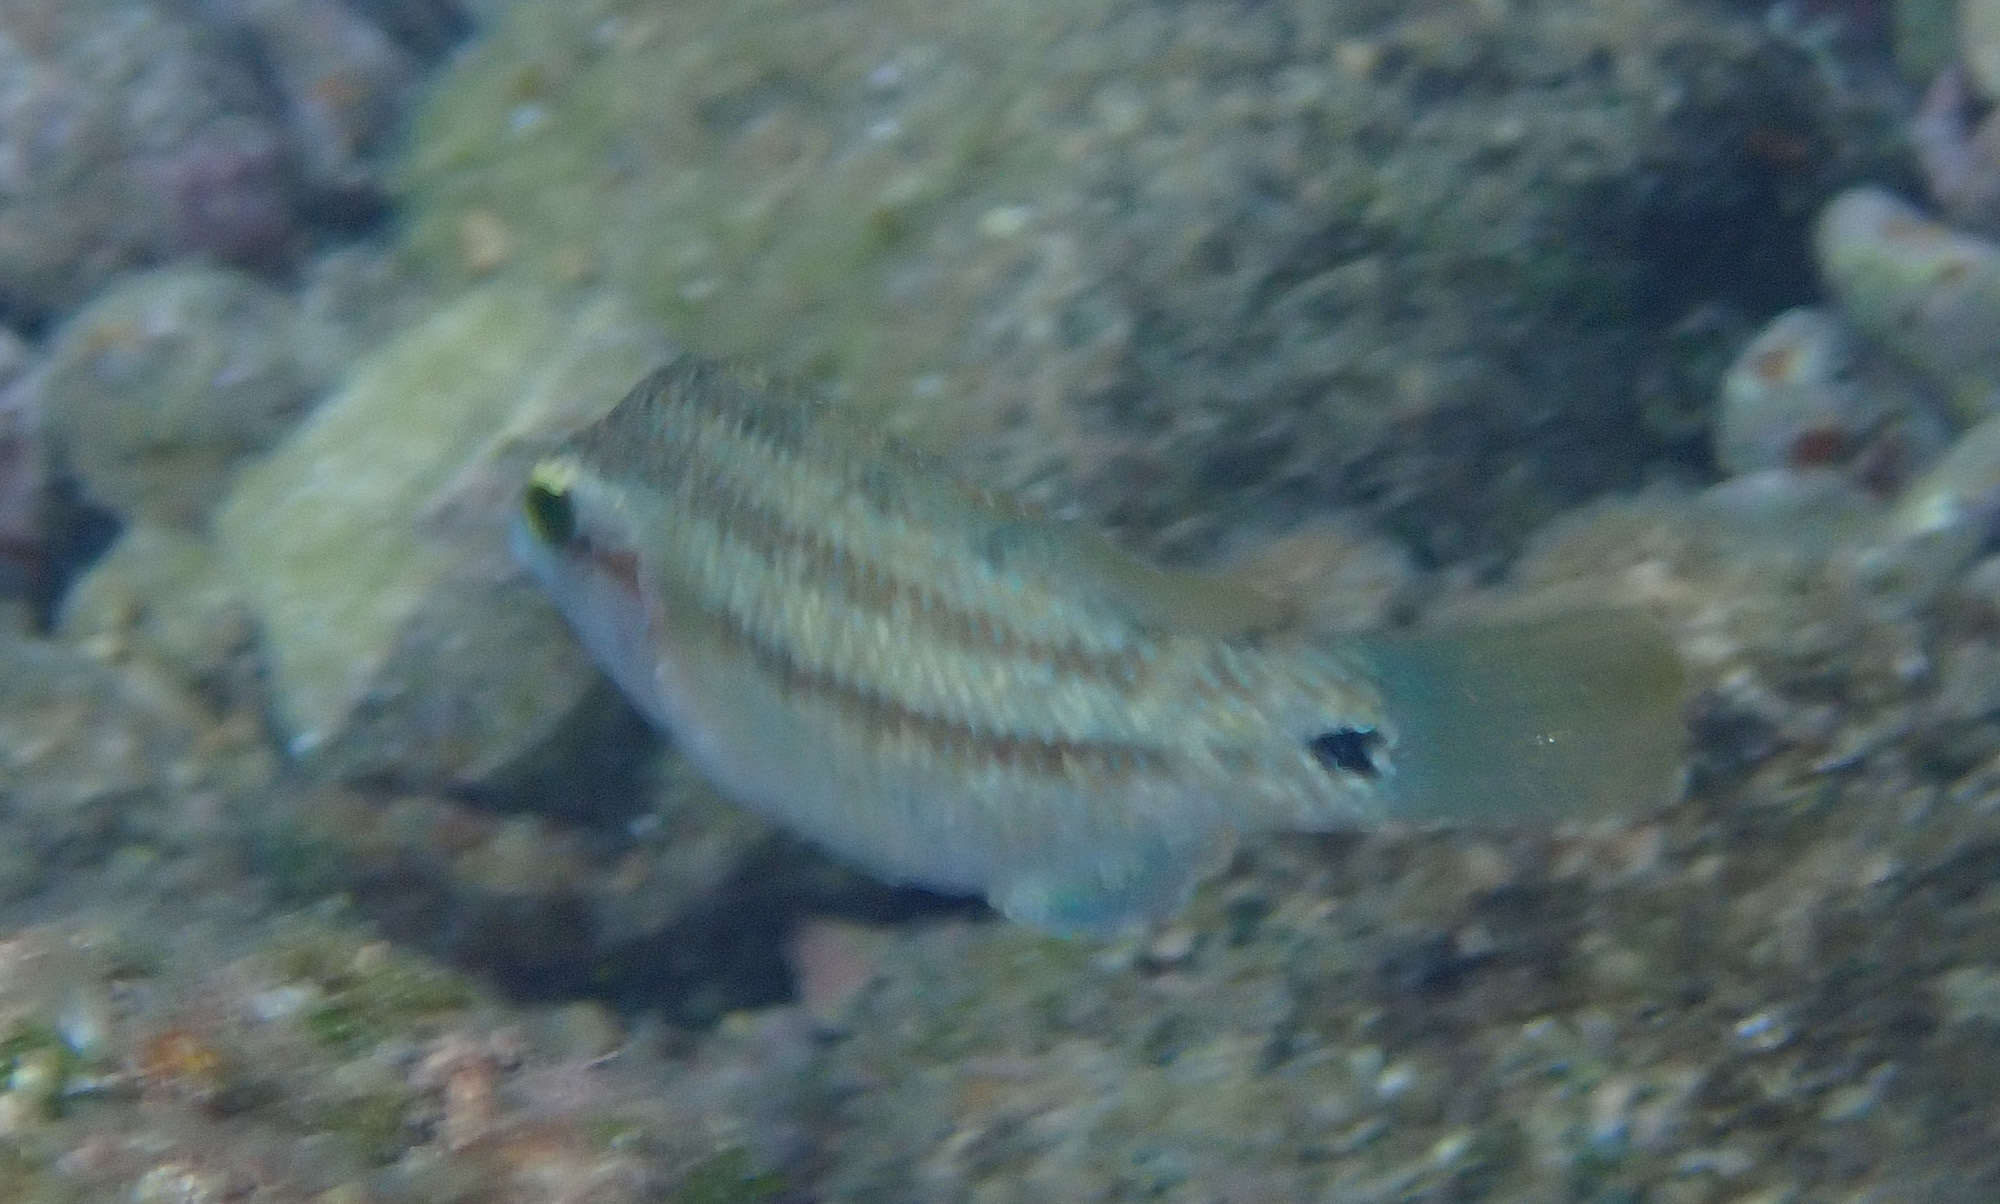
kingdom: Animalia
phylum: Chordata
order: Perciformes
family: Labridae
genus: Symphodus
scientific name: Symphodus tinca
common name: Peacock wrasse
